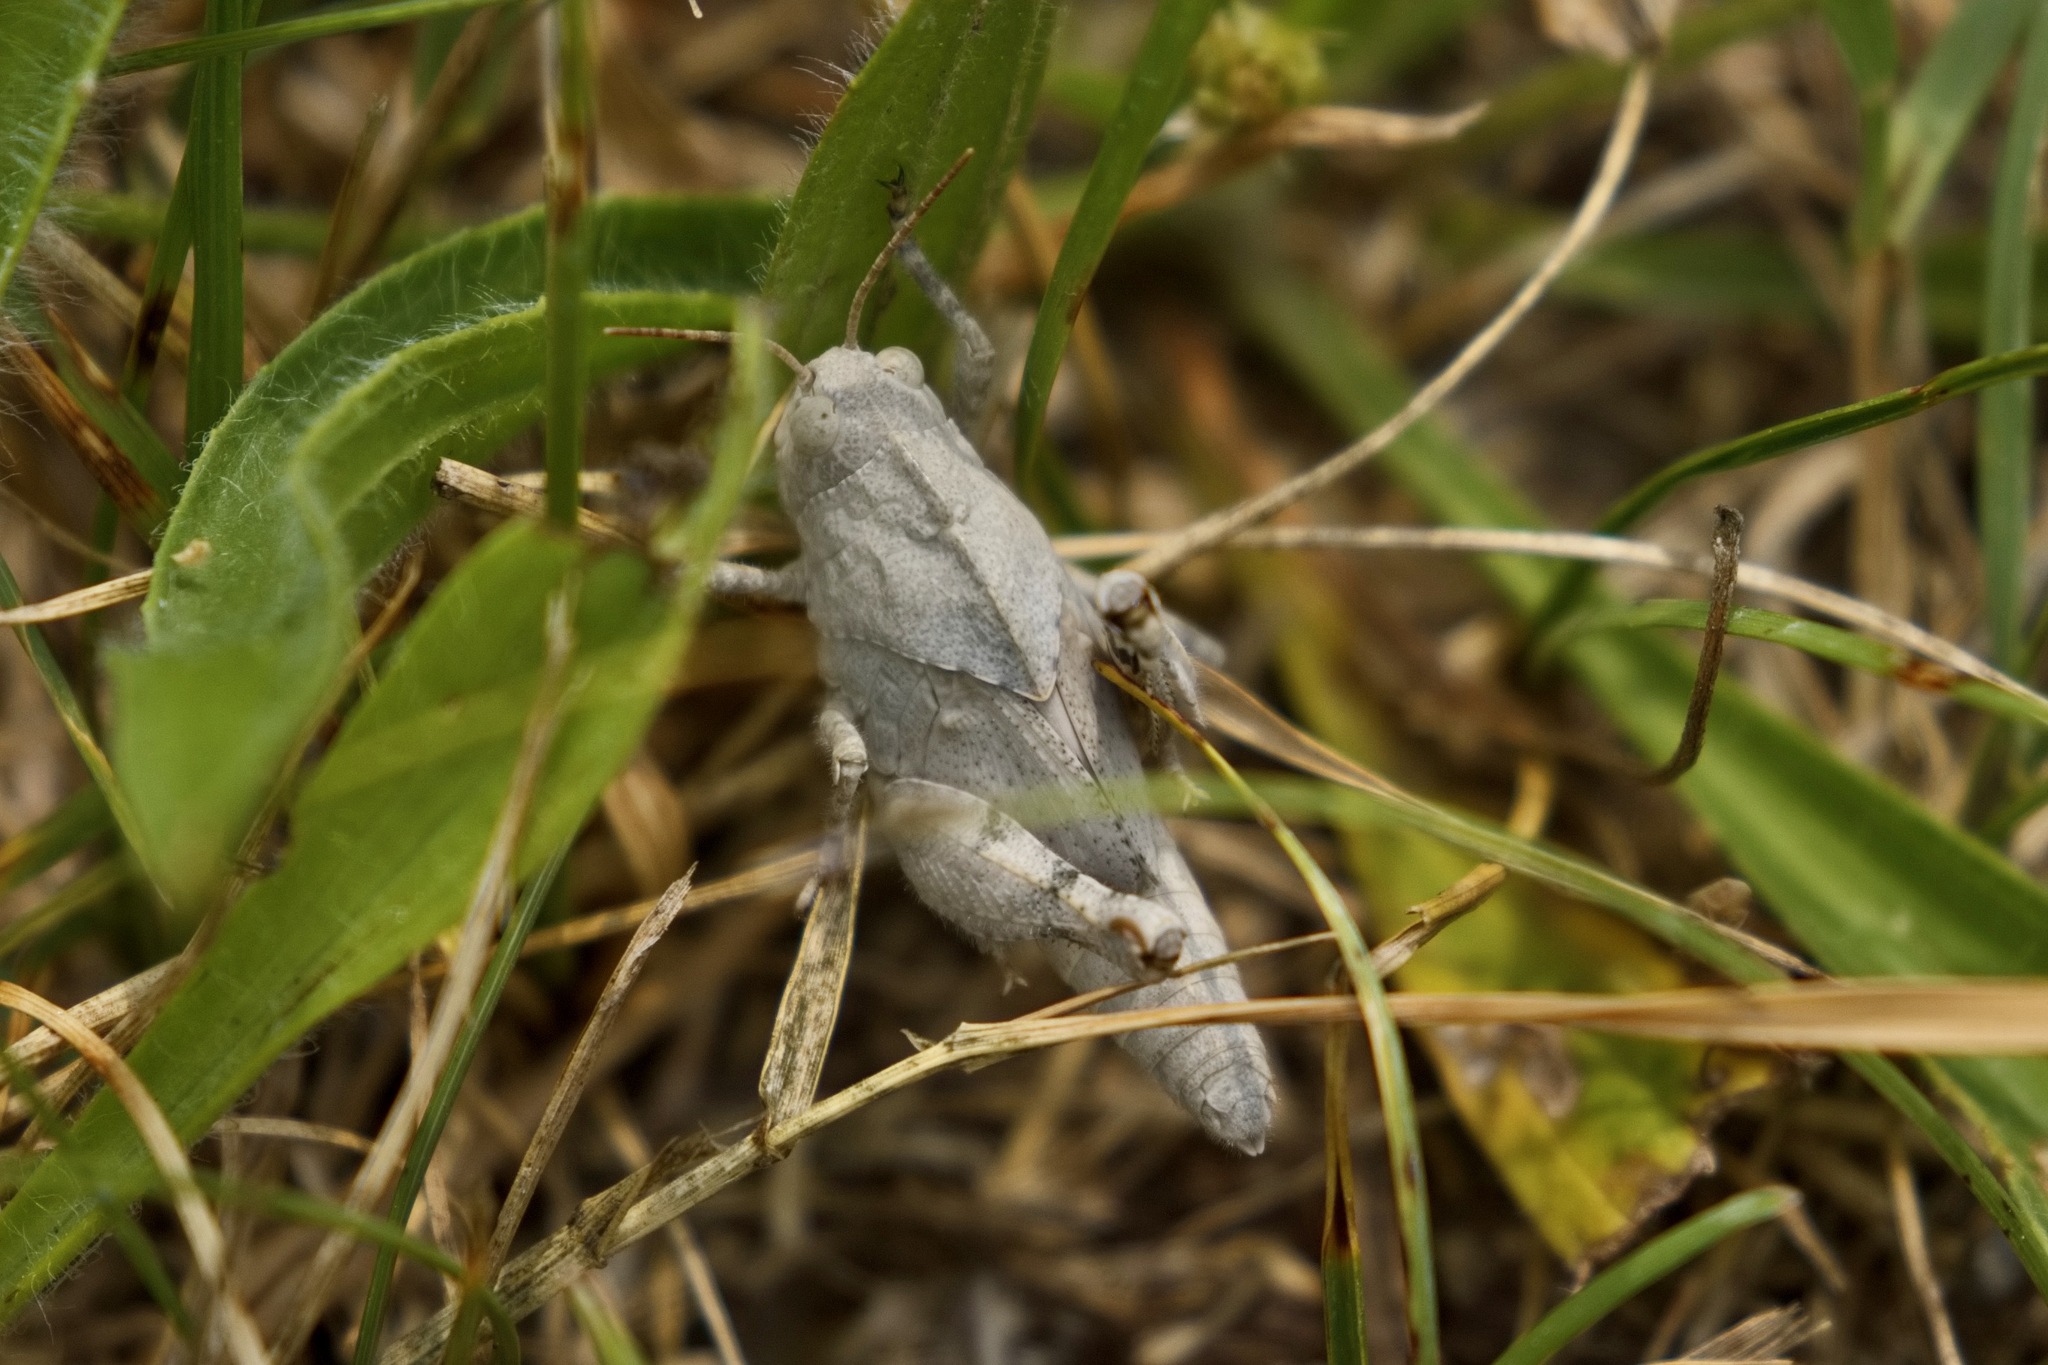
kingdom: Animalia
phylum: Arthropoda
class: Insecta
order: Orthoptera
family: Acrididae
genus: Dissosteira
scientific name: Dissosteira carolina
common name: Carolina grasshopper
